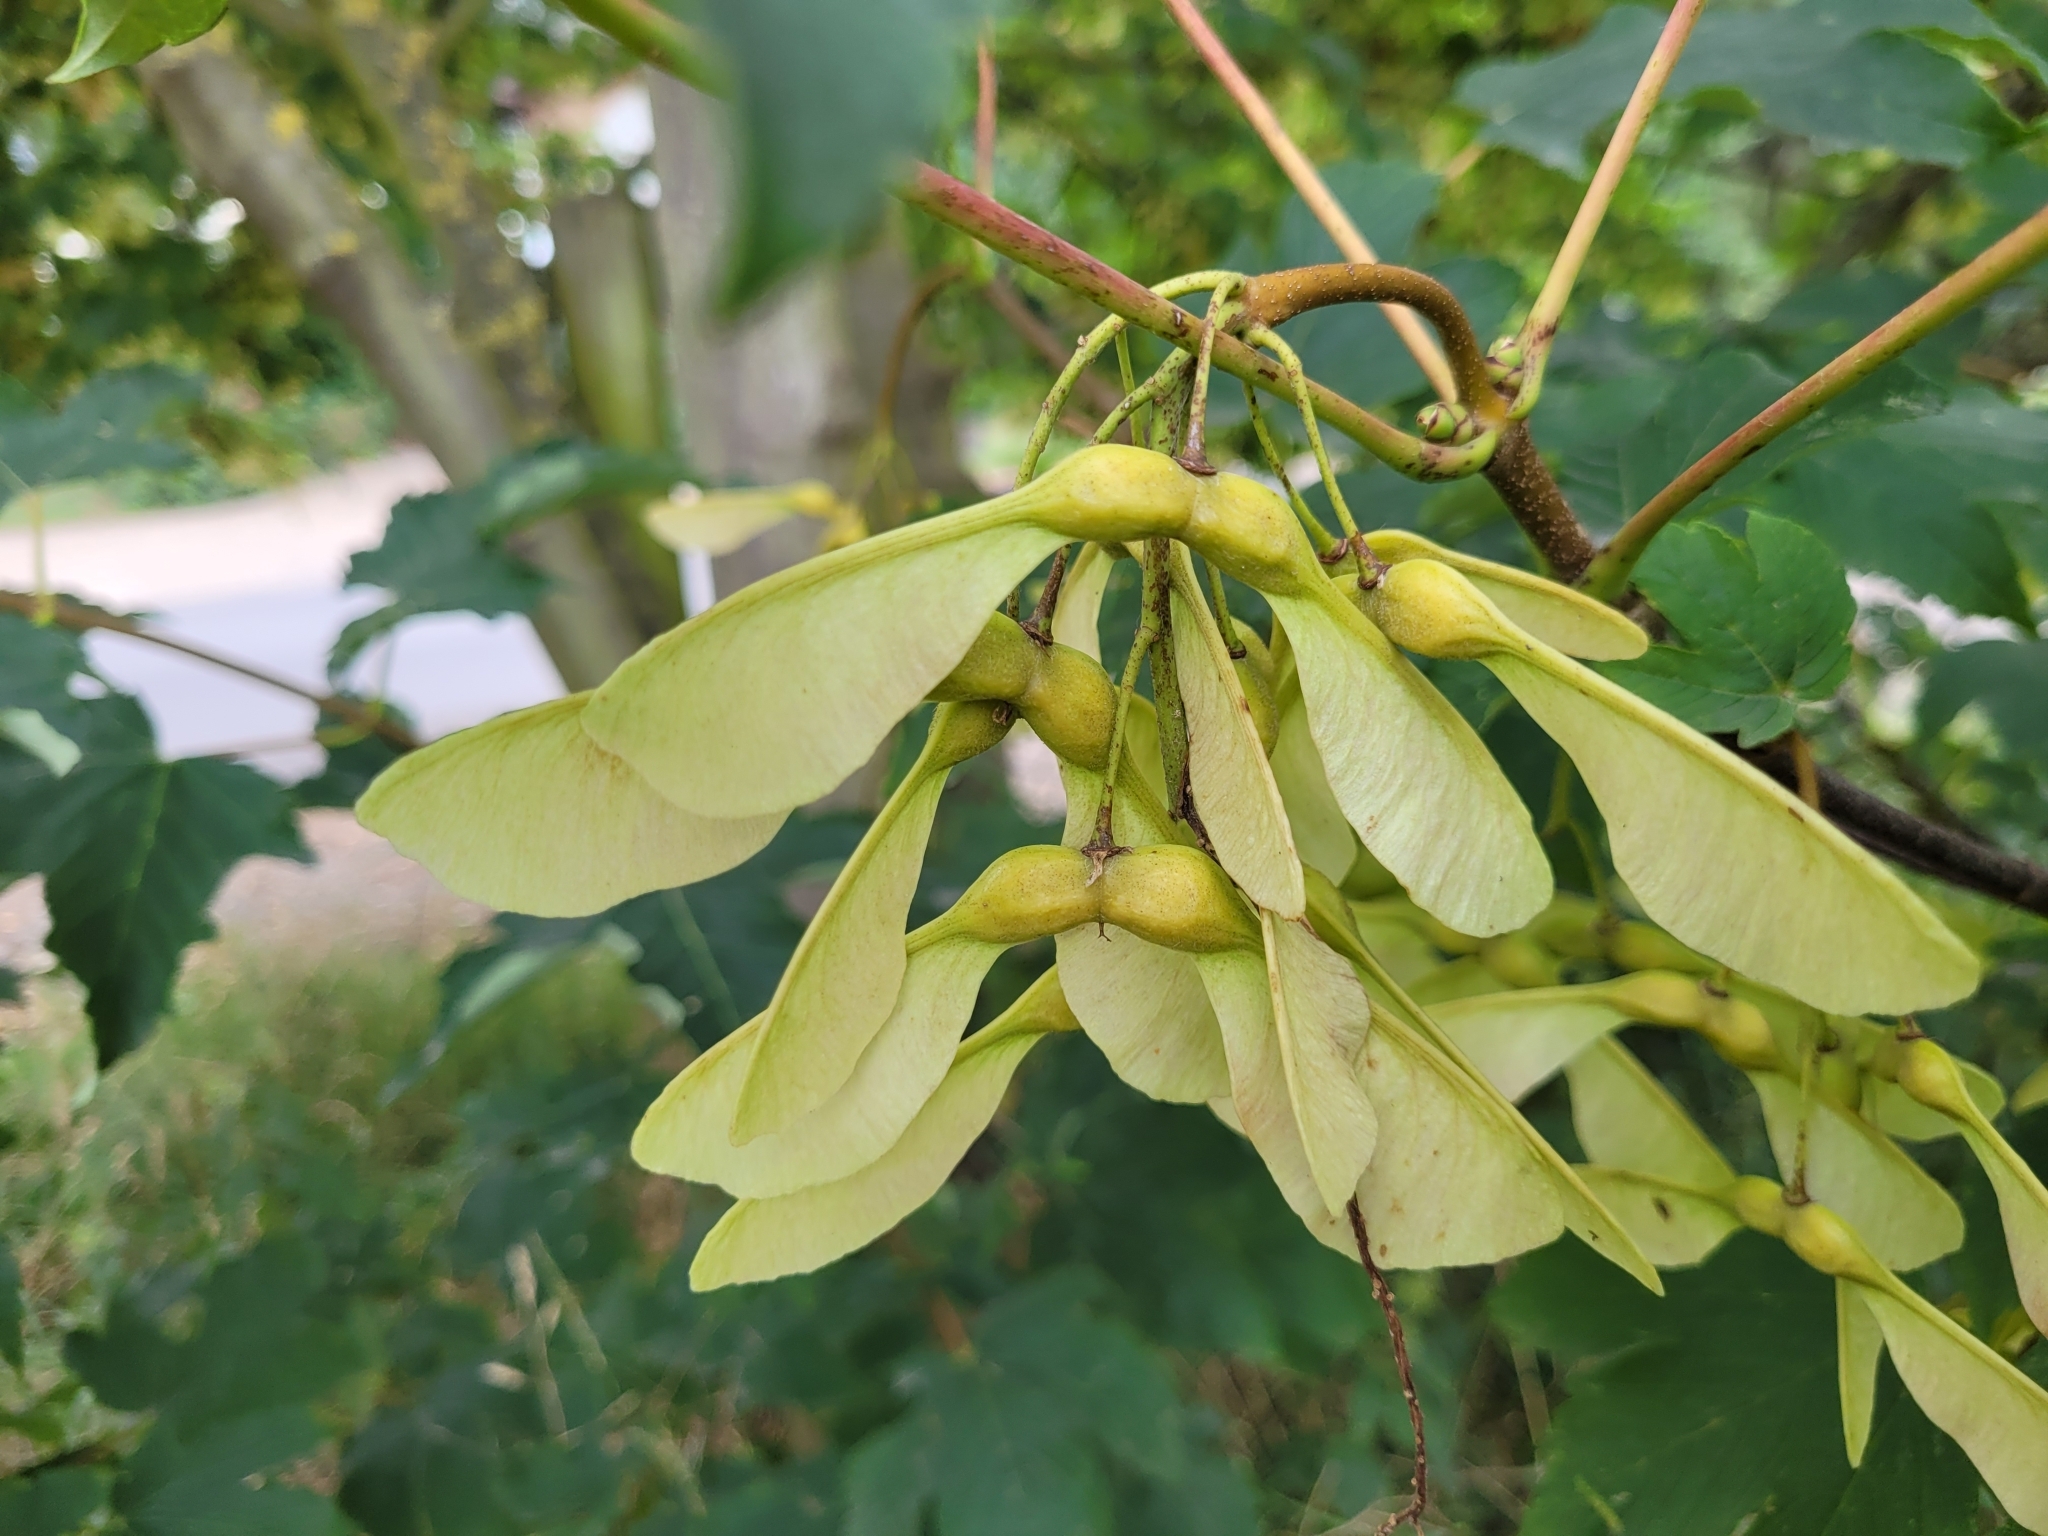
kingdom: Plantae
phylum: Tracheophyta
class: Magnoliopsida
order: Sapindales
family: Sapindaceae
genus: Acer
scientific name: Acer pseudoplatanus
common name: Sycamore
